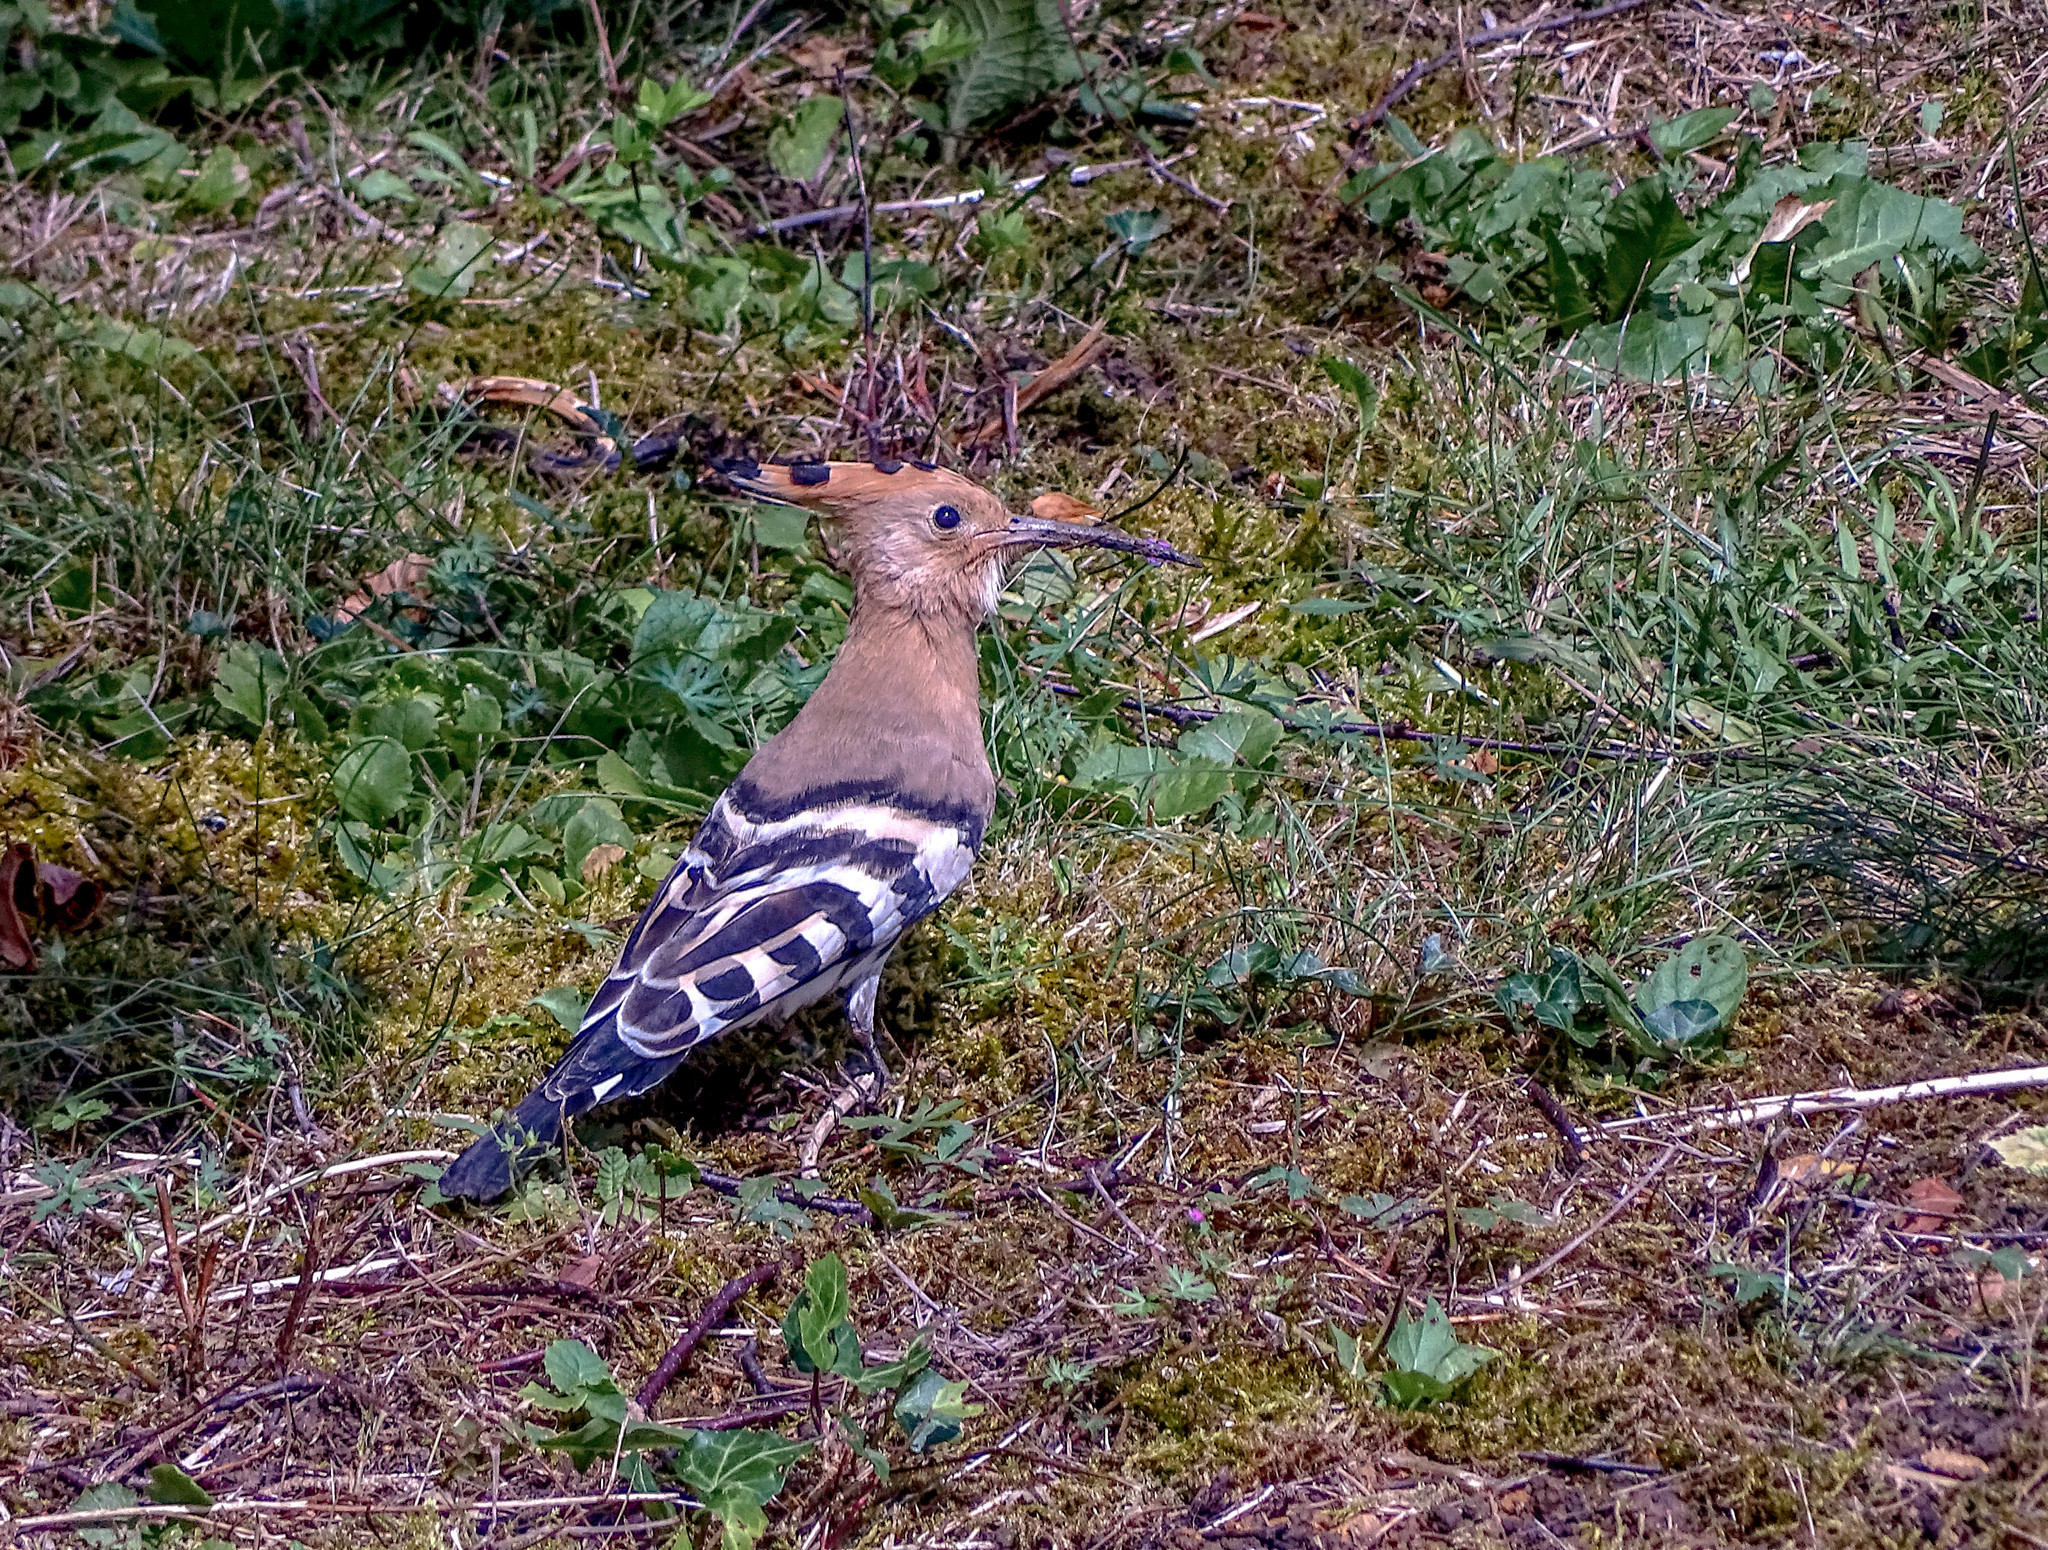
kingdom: Animalia
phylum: Chordata
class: Aves
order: Bucerotiformes
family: Upupidae
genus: Upupa
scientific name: Upupa epops
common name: Eurasian hoopoe
